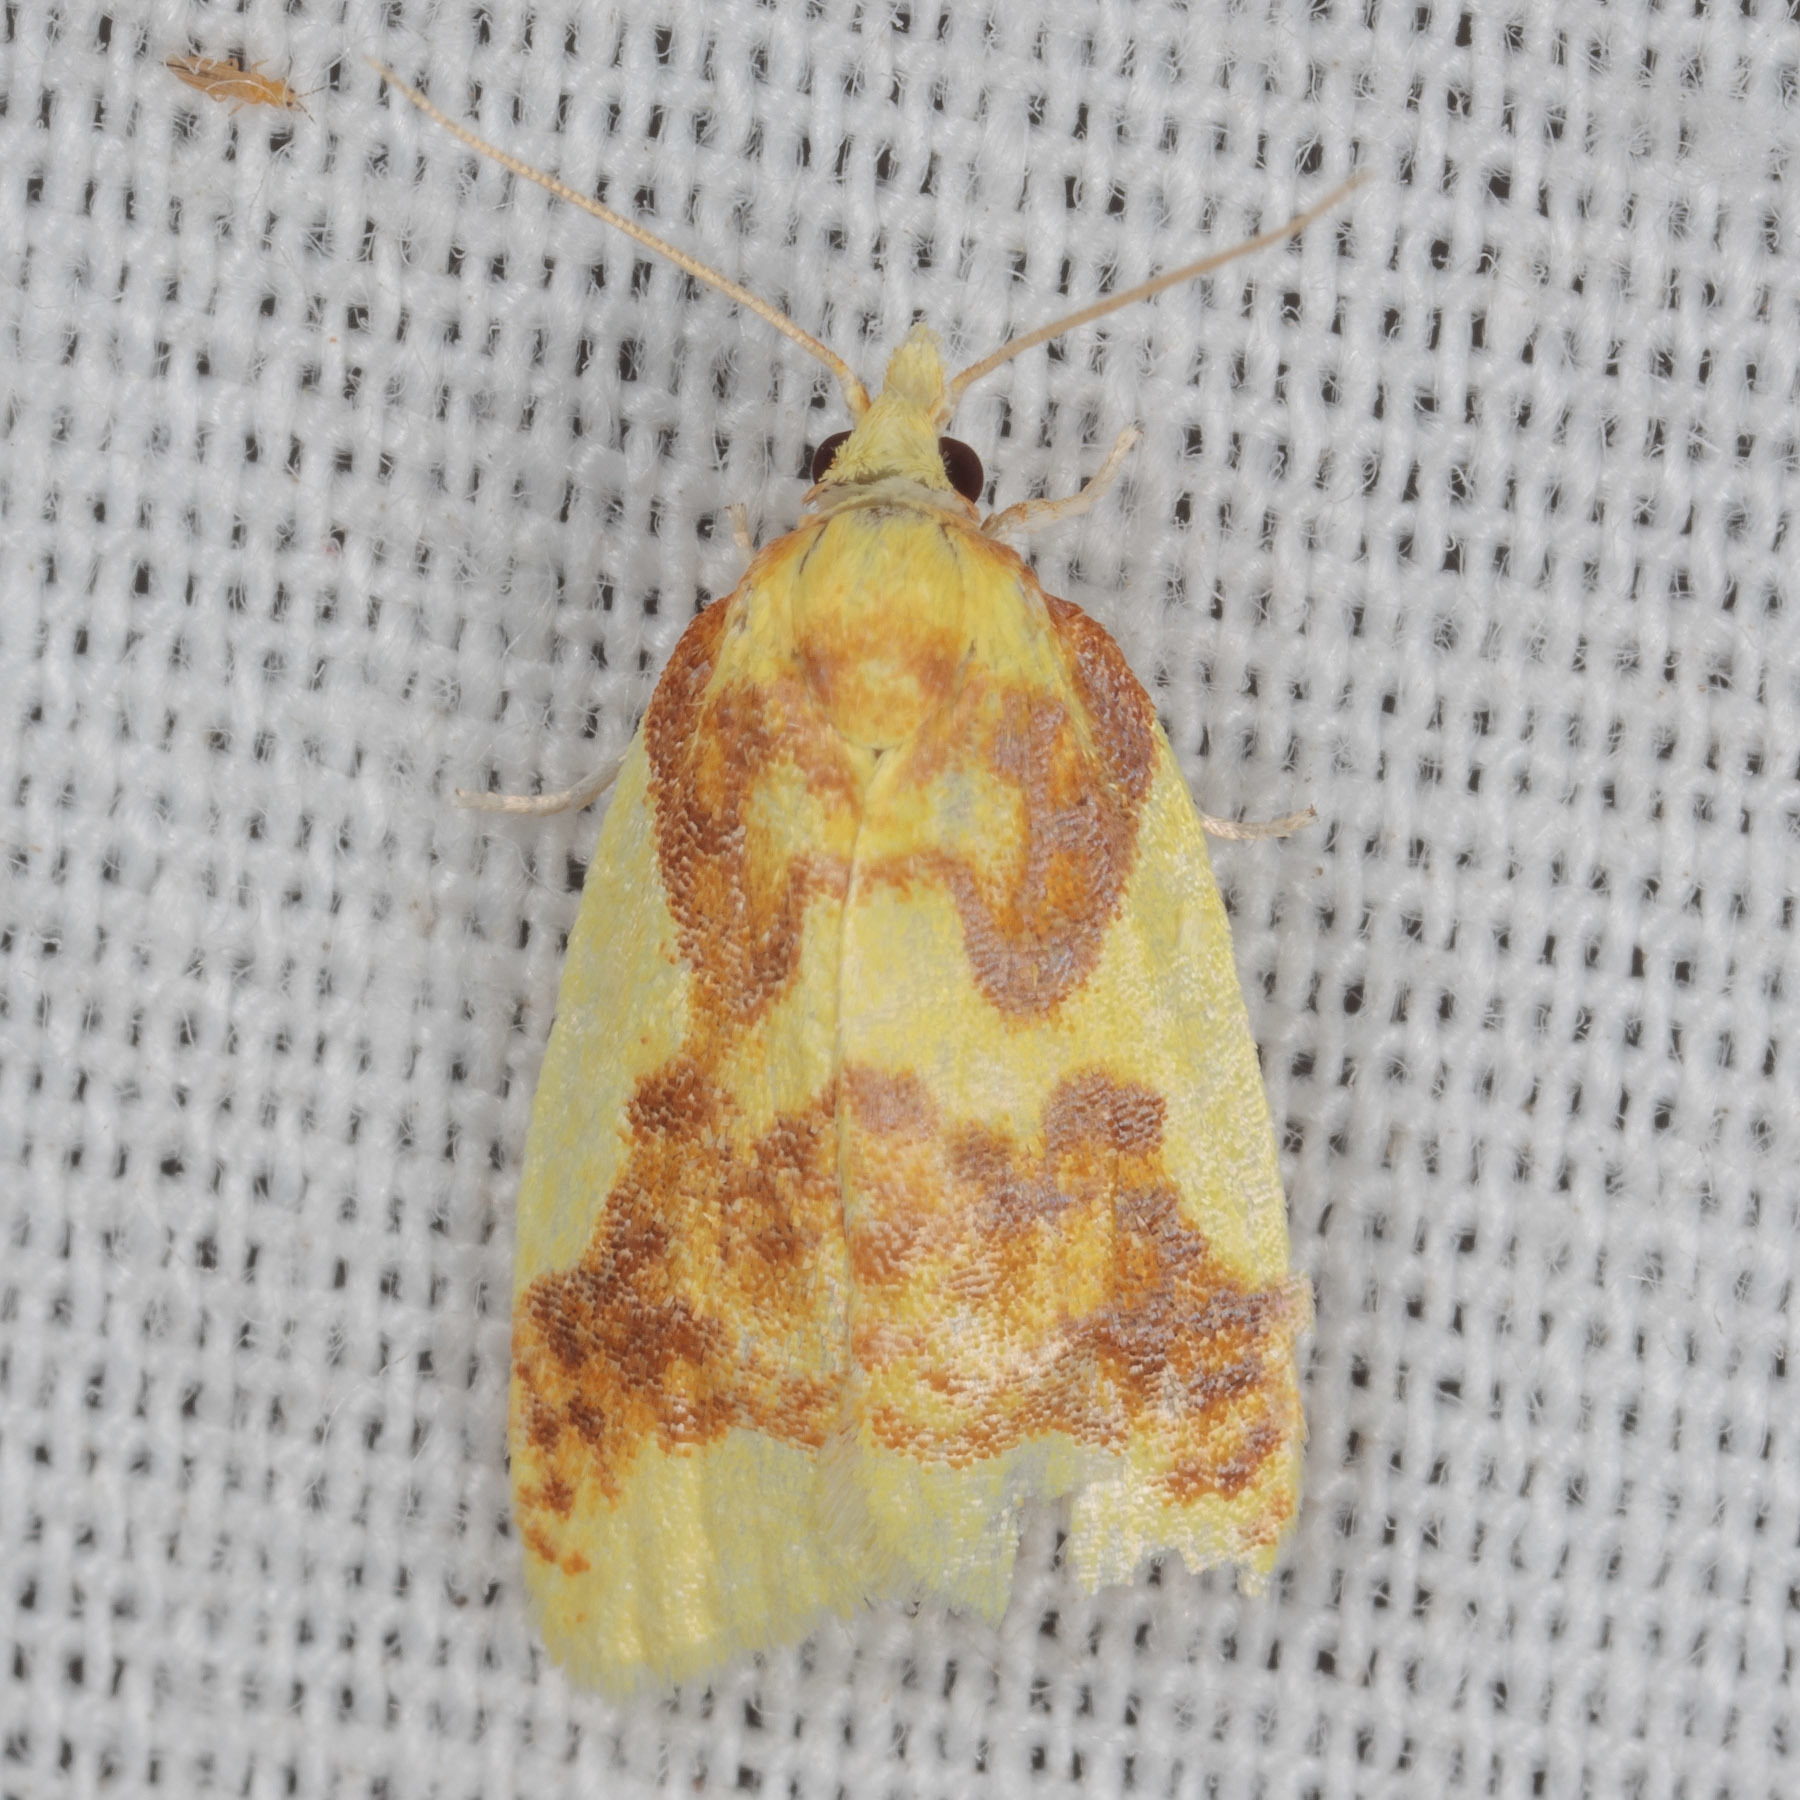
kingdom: Animalia
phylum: Arthropoda
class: Insecta
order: Lepidoptera
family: Tortricidae
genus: Sparganothis
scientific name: Sparganothis pulcherrimana
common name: Beautiful sparganothis
